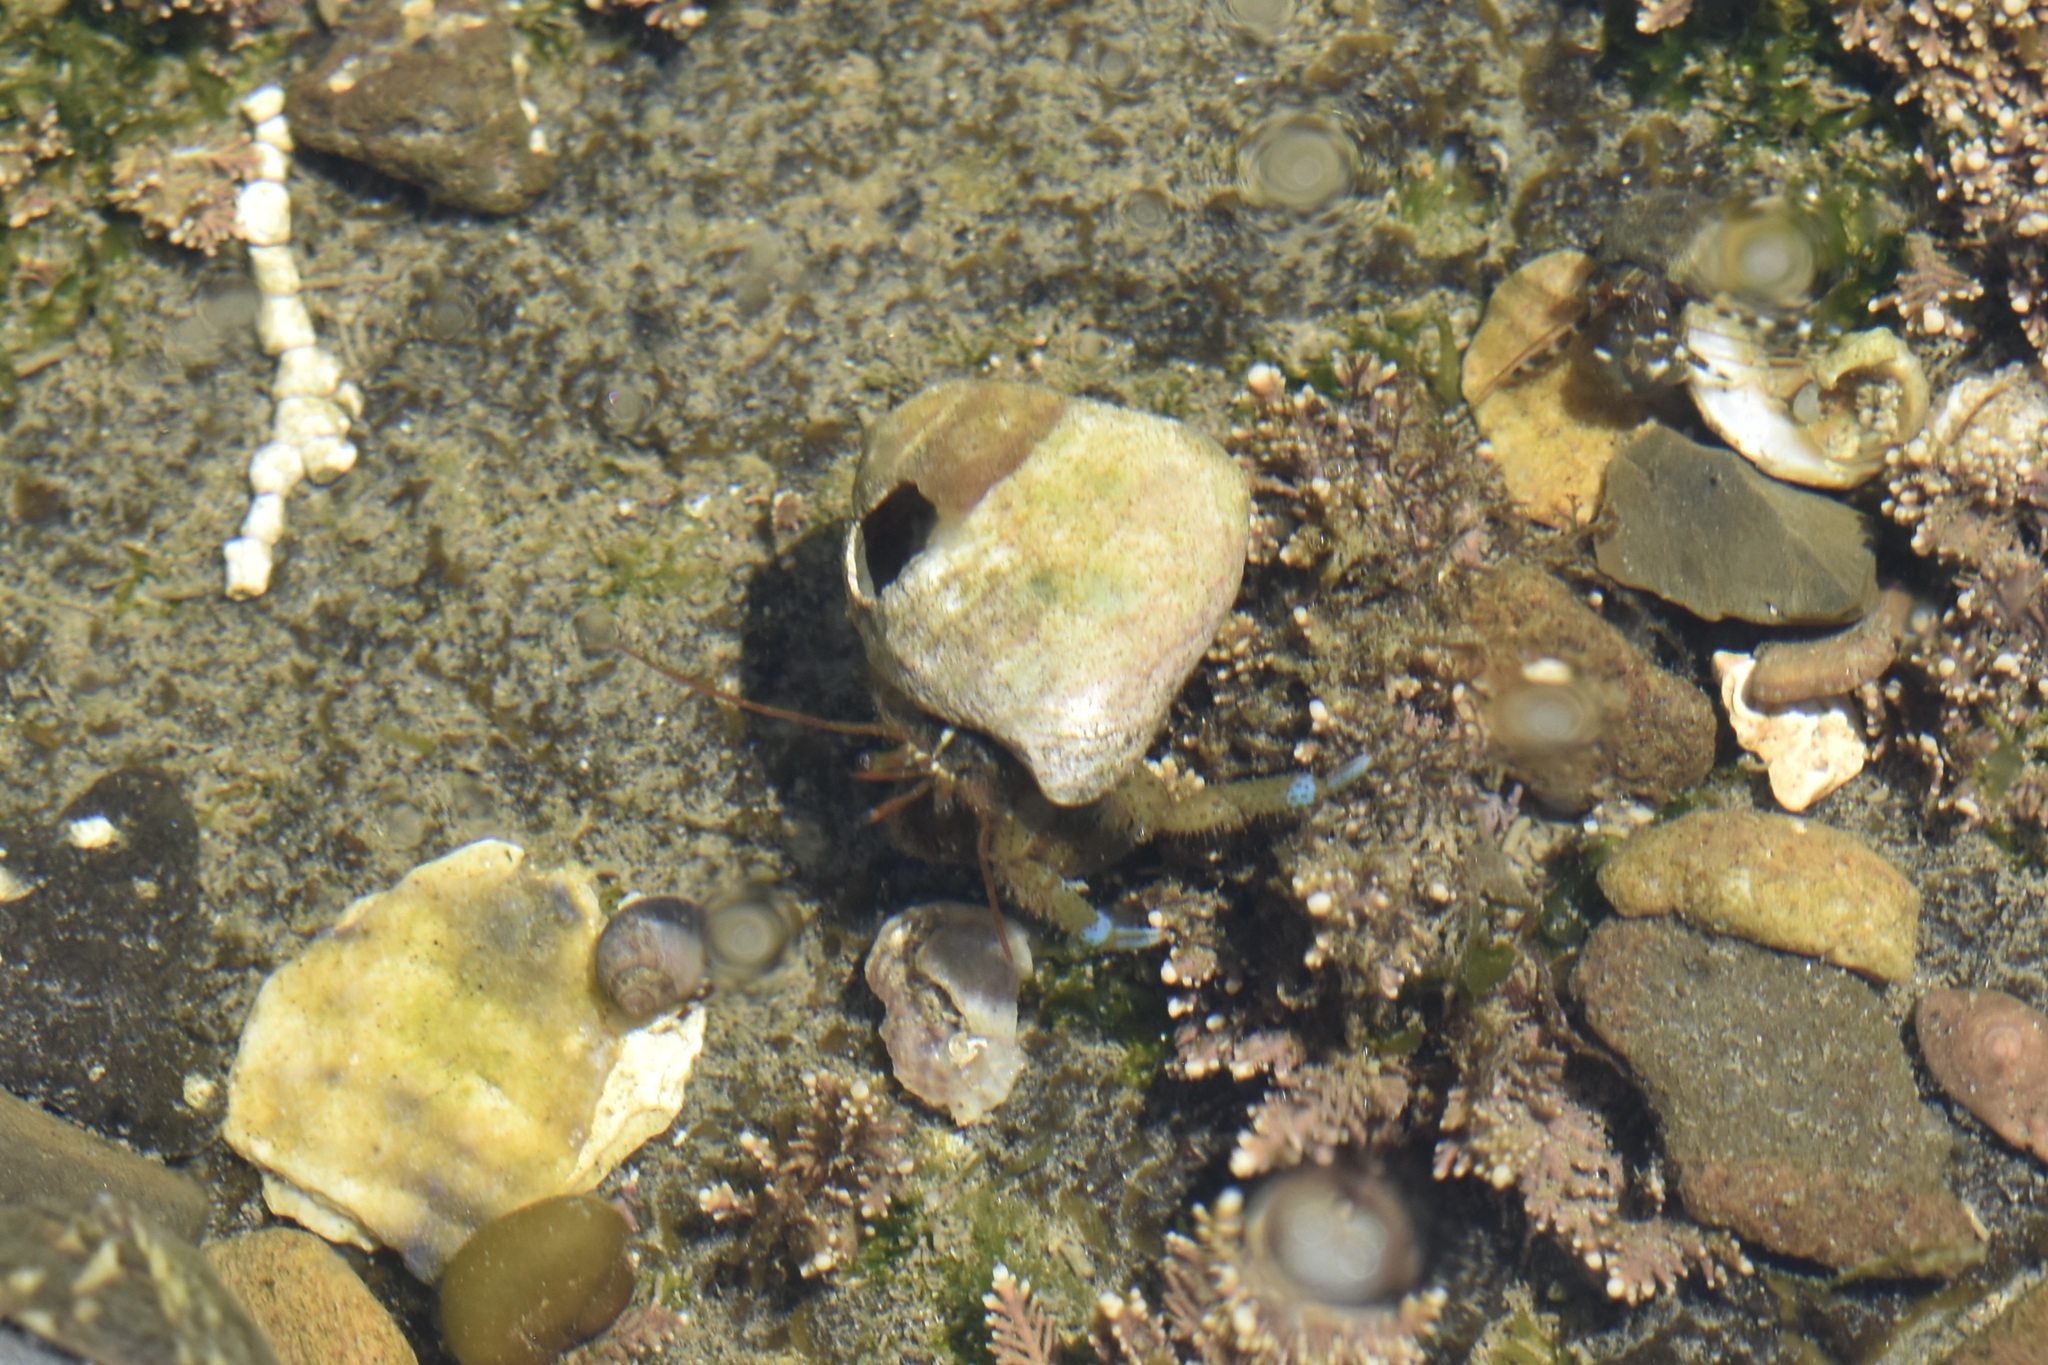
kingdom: Animalia
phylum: Arthropoda
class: Malacostraca
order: Decapoda
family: Paguridae
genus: Pagurus
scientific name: Pagurus samuelis
